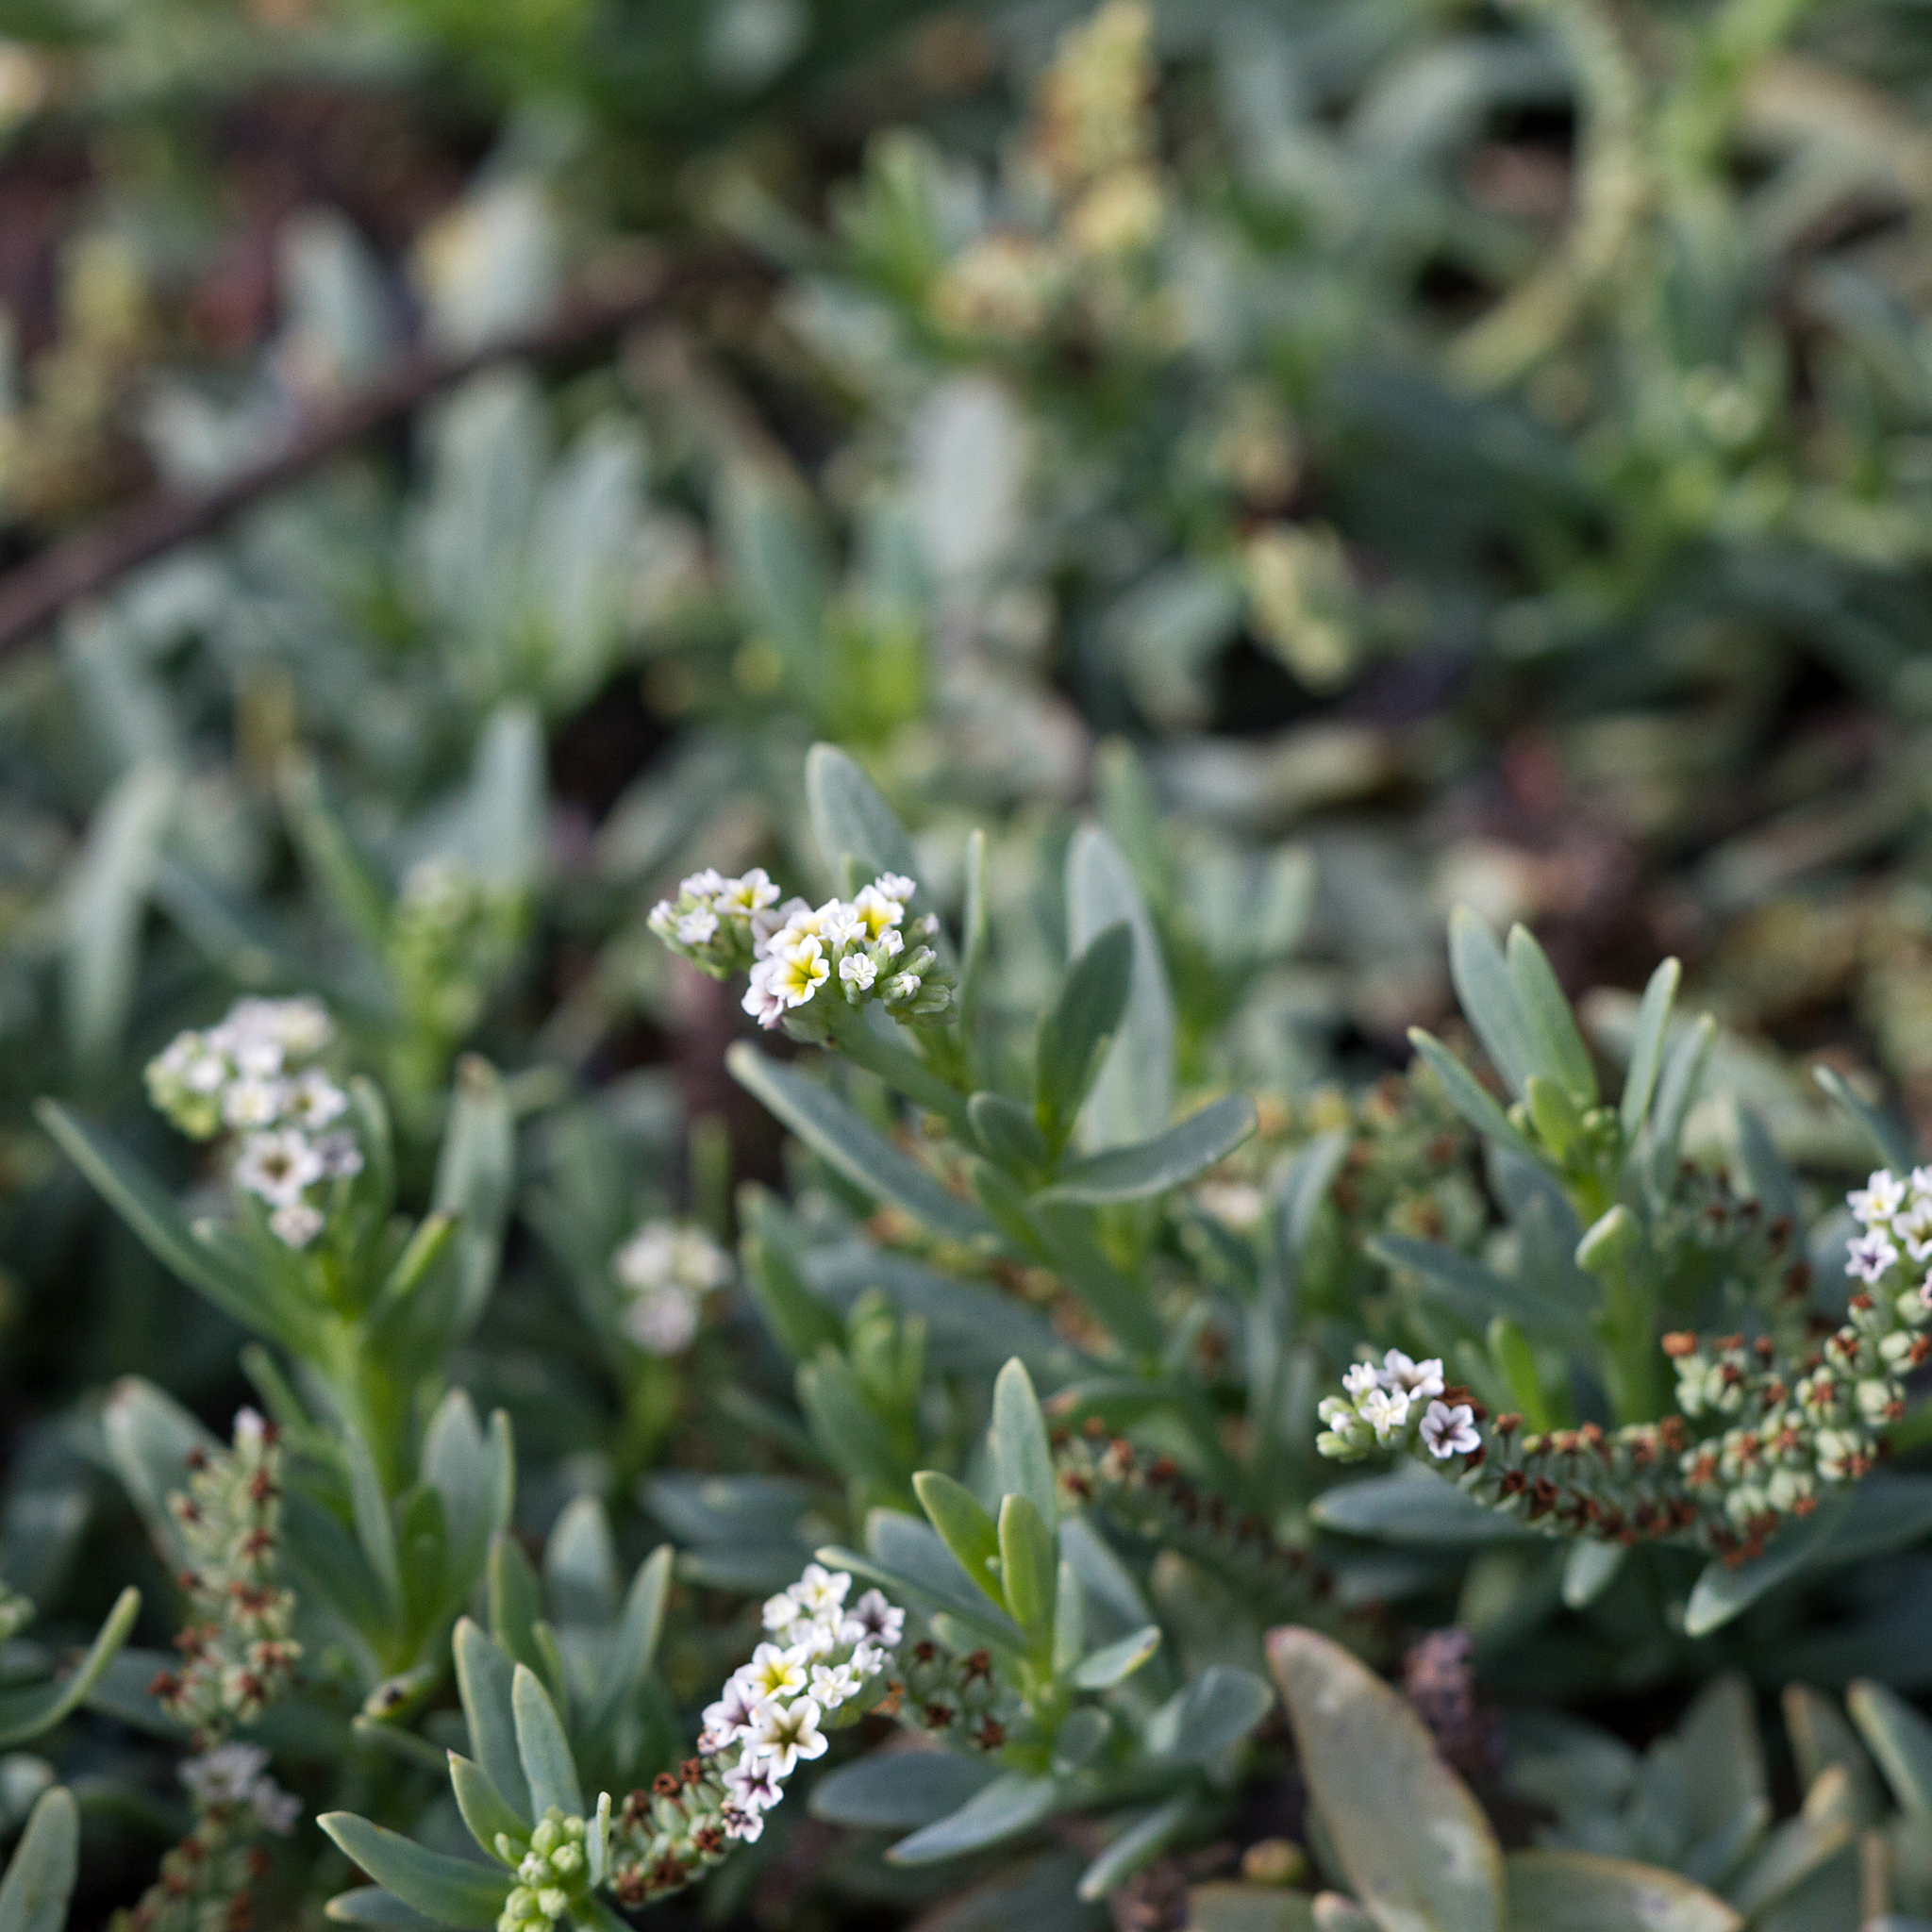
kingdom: Plantae
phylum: Tracheophyta
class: Magnoliopsida
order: Boraginales
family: Heliotropiaceae
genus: Heliotropium
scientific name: Heliotropium curassavicum
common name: Seaside heliotrope
